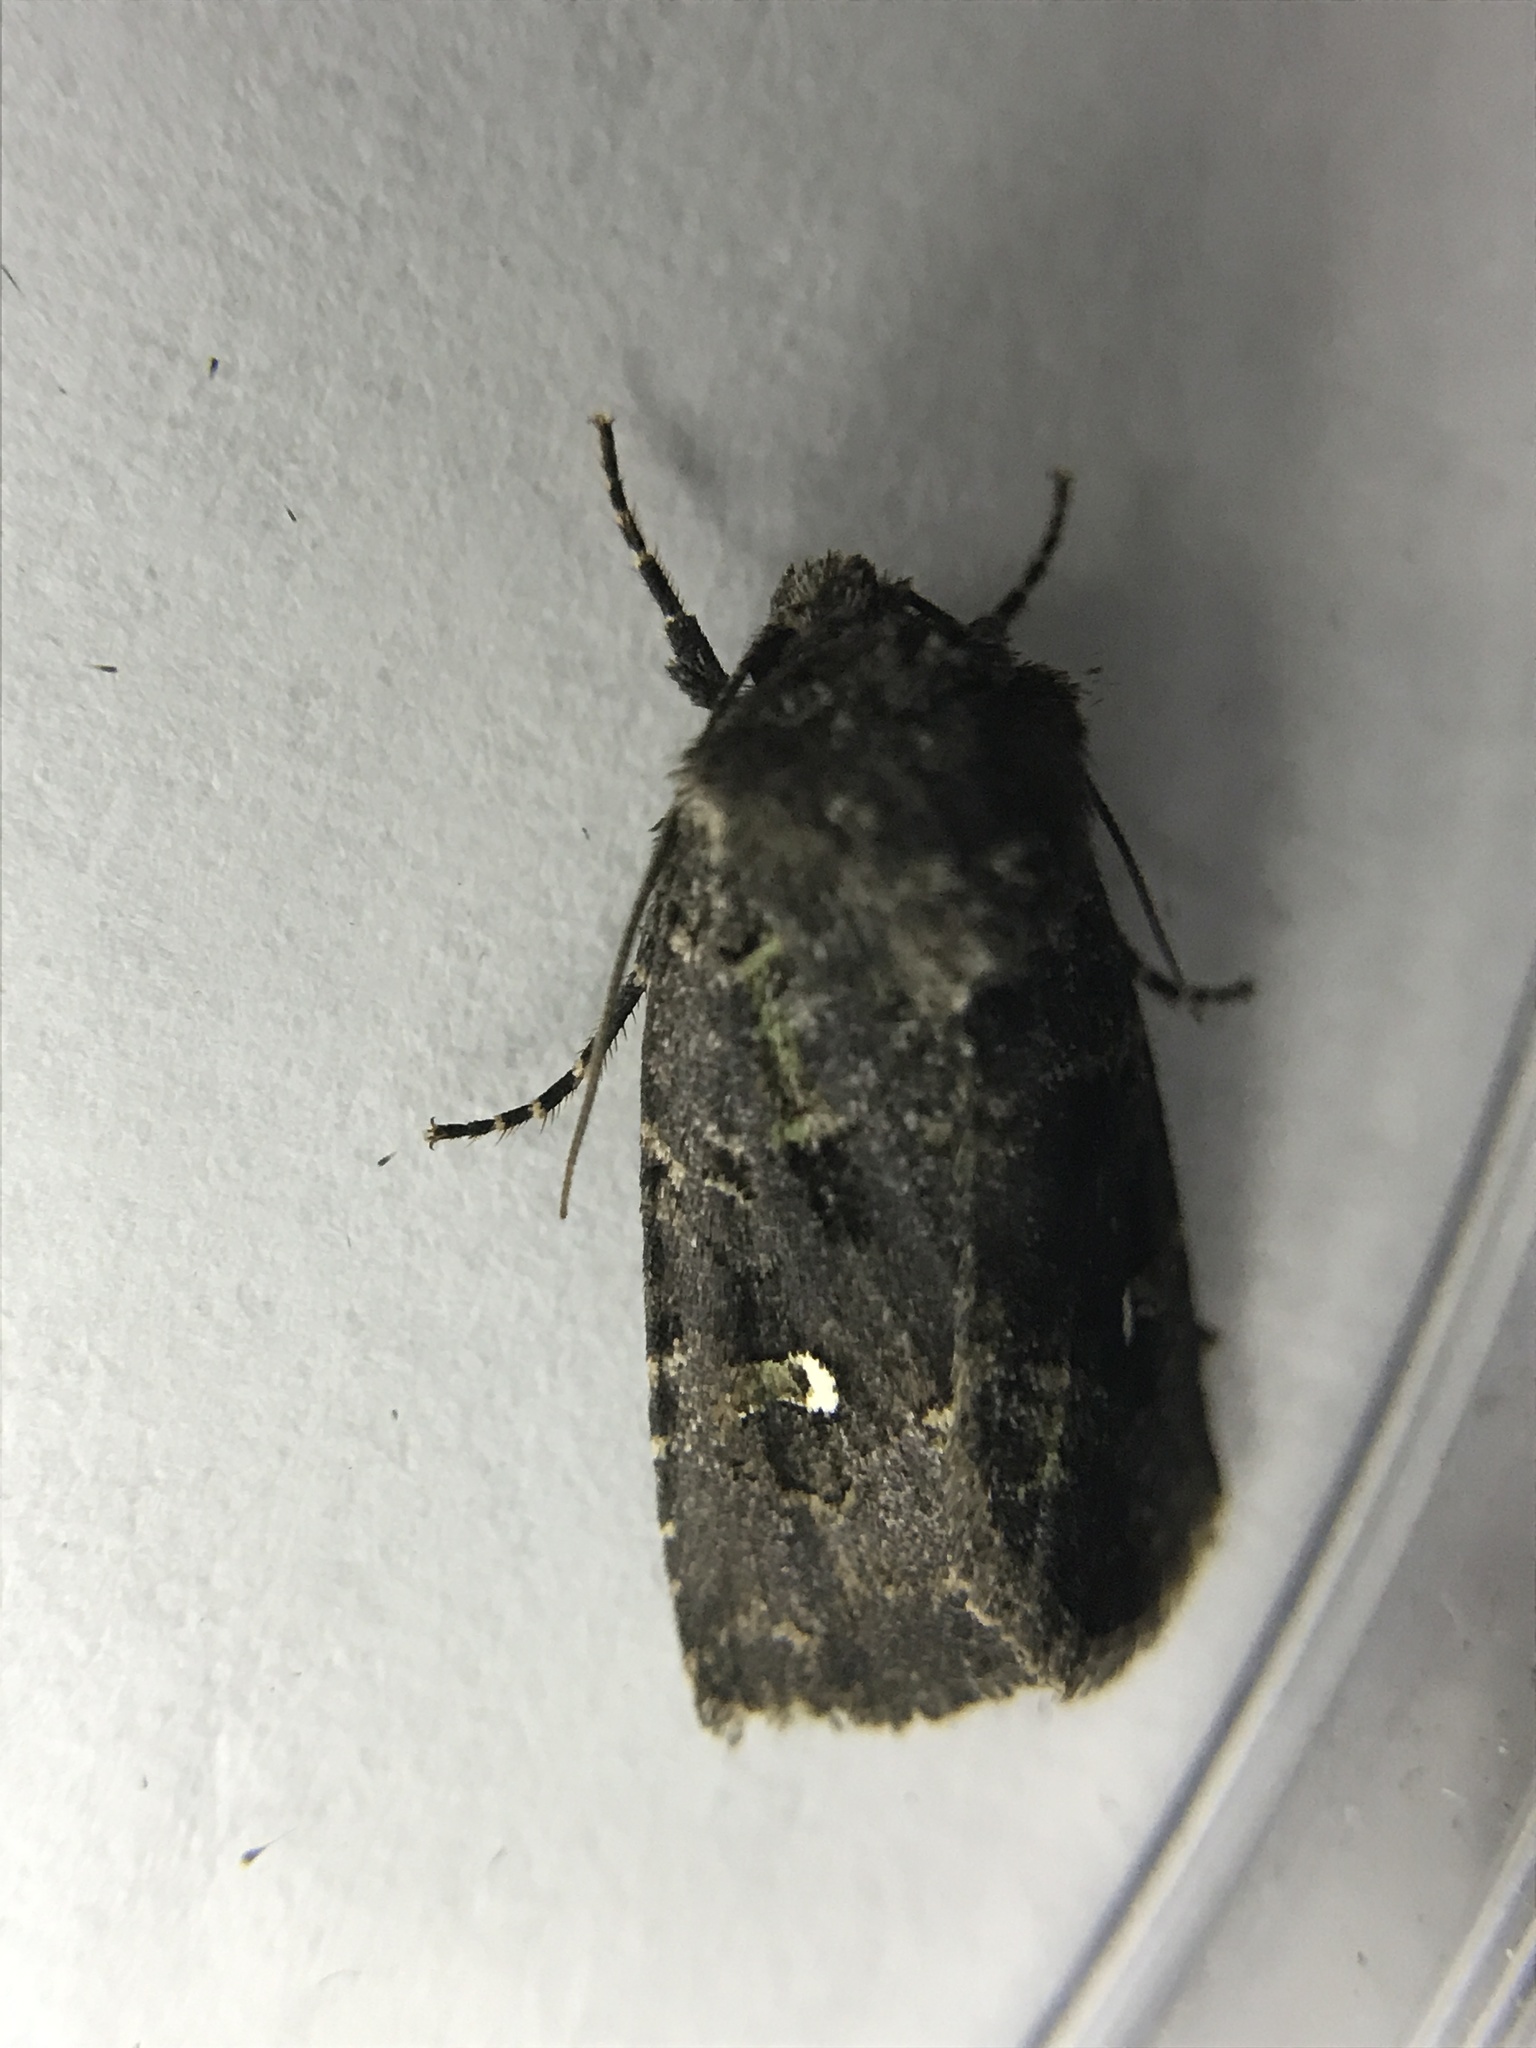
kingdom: Animalia
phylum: Arthropoda
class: Insecta
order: Lepidoptera
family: Noctuidae
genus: Lacinipolia
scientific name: Lacinipolia renigera
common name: Kidney-spotted minor
